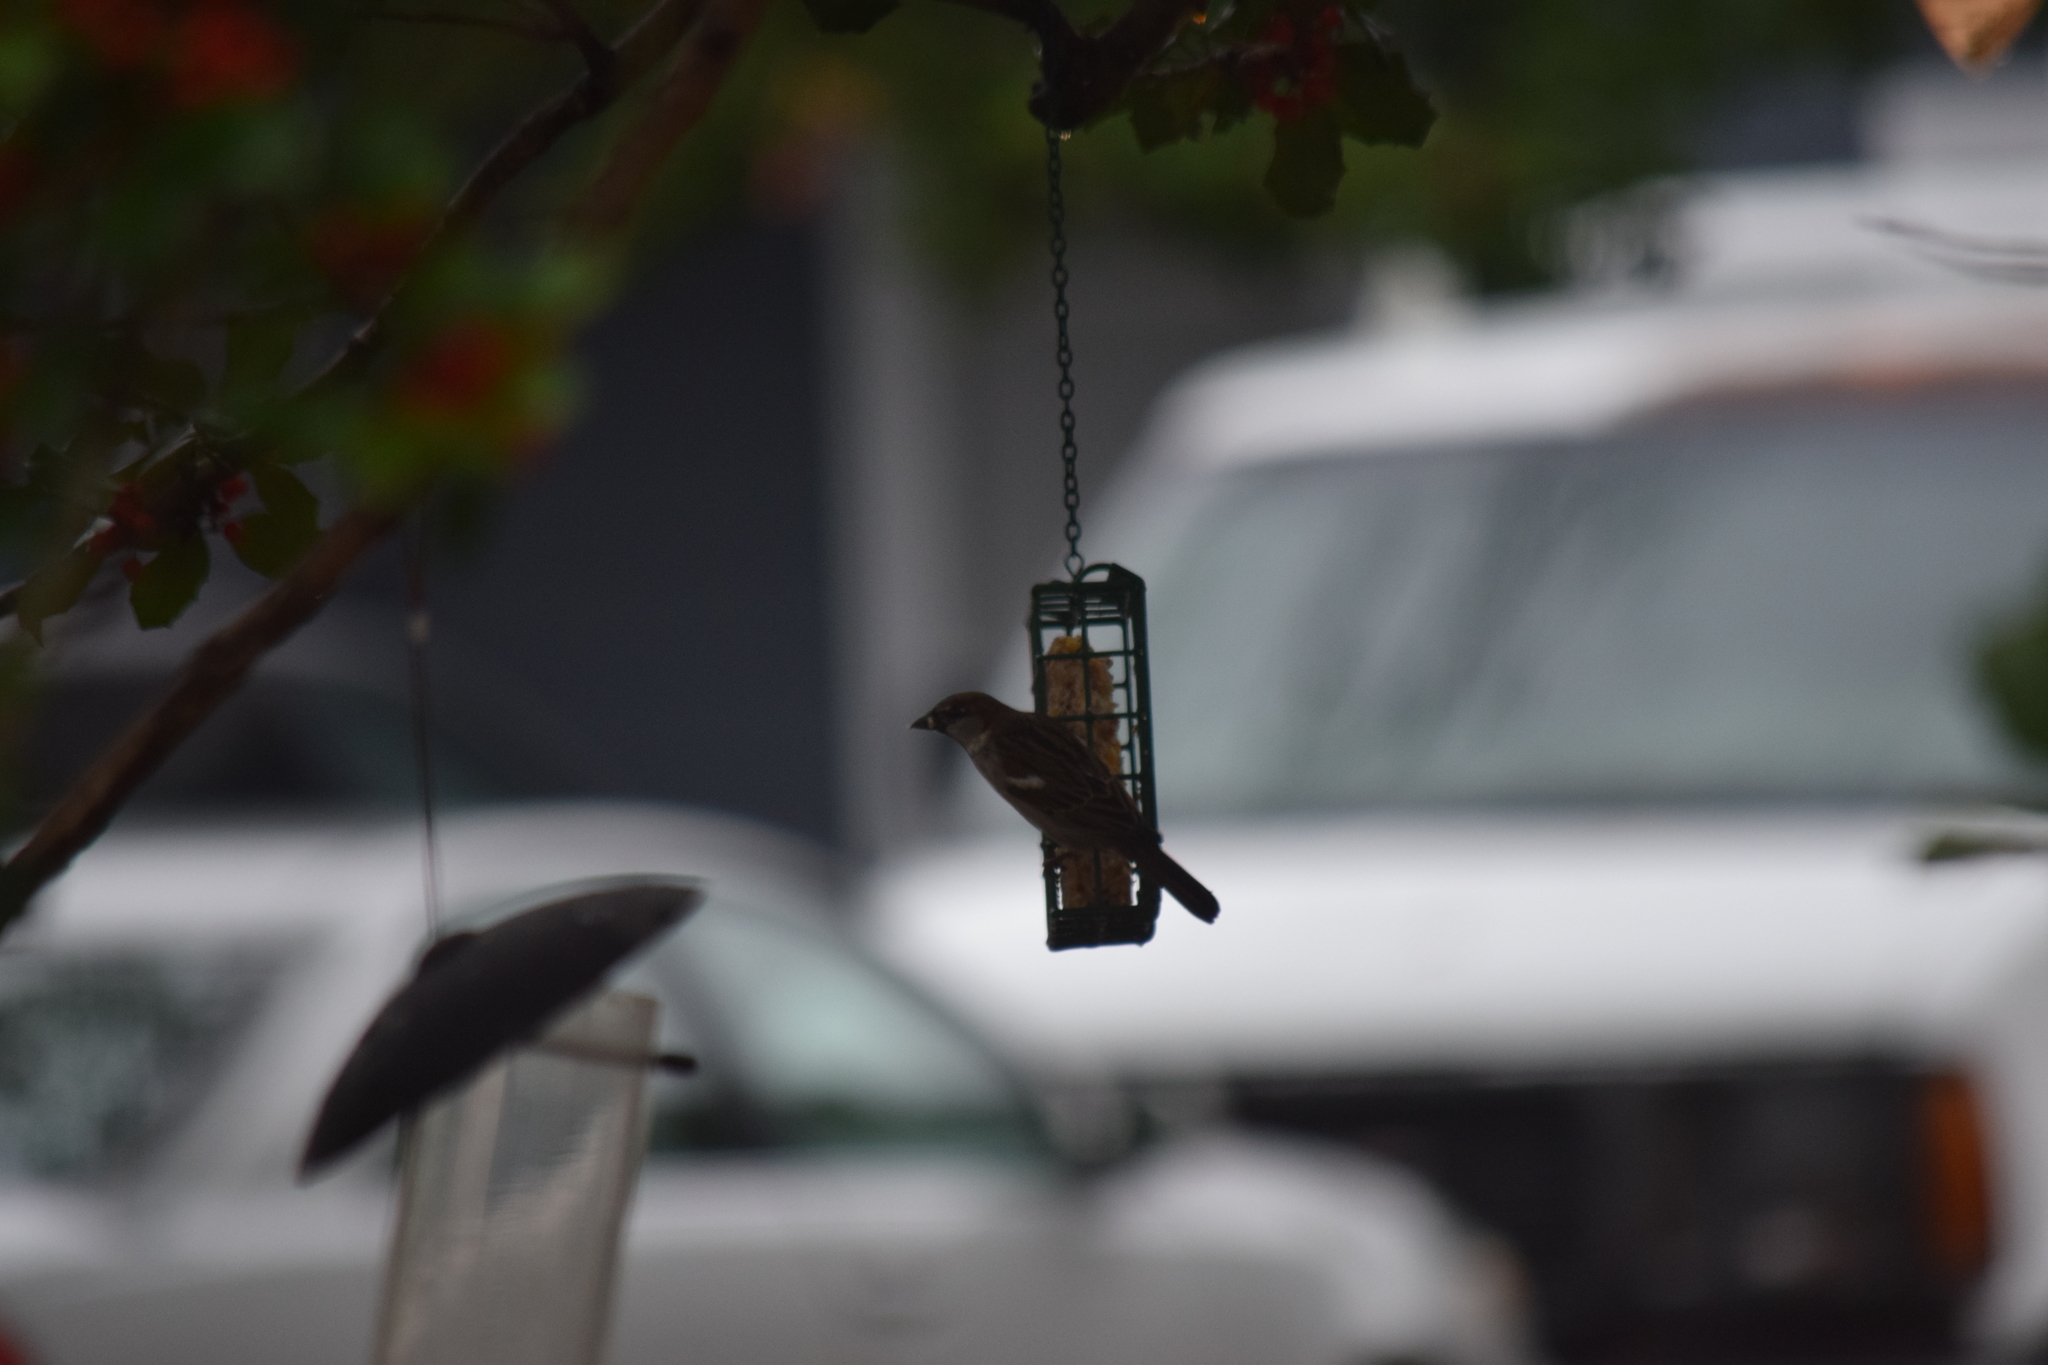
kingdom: Animalia
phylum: Chordata
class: Aves
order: Passeriformes
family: Passeridae
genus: Passer
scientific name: Passer domesticus
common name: House sparrow
